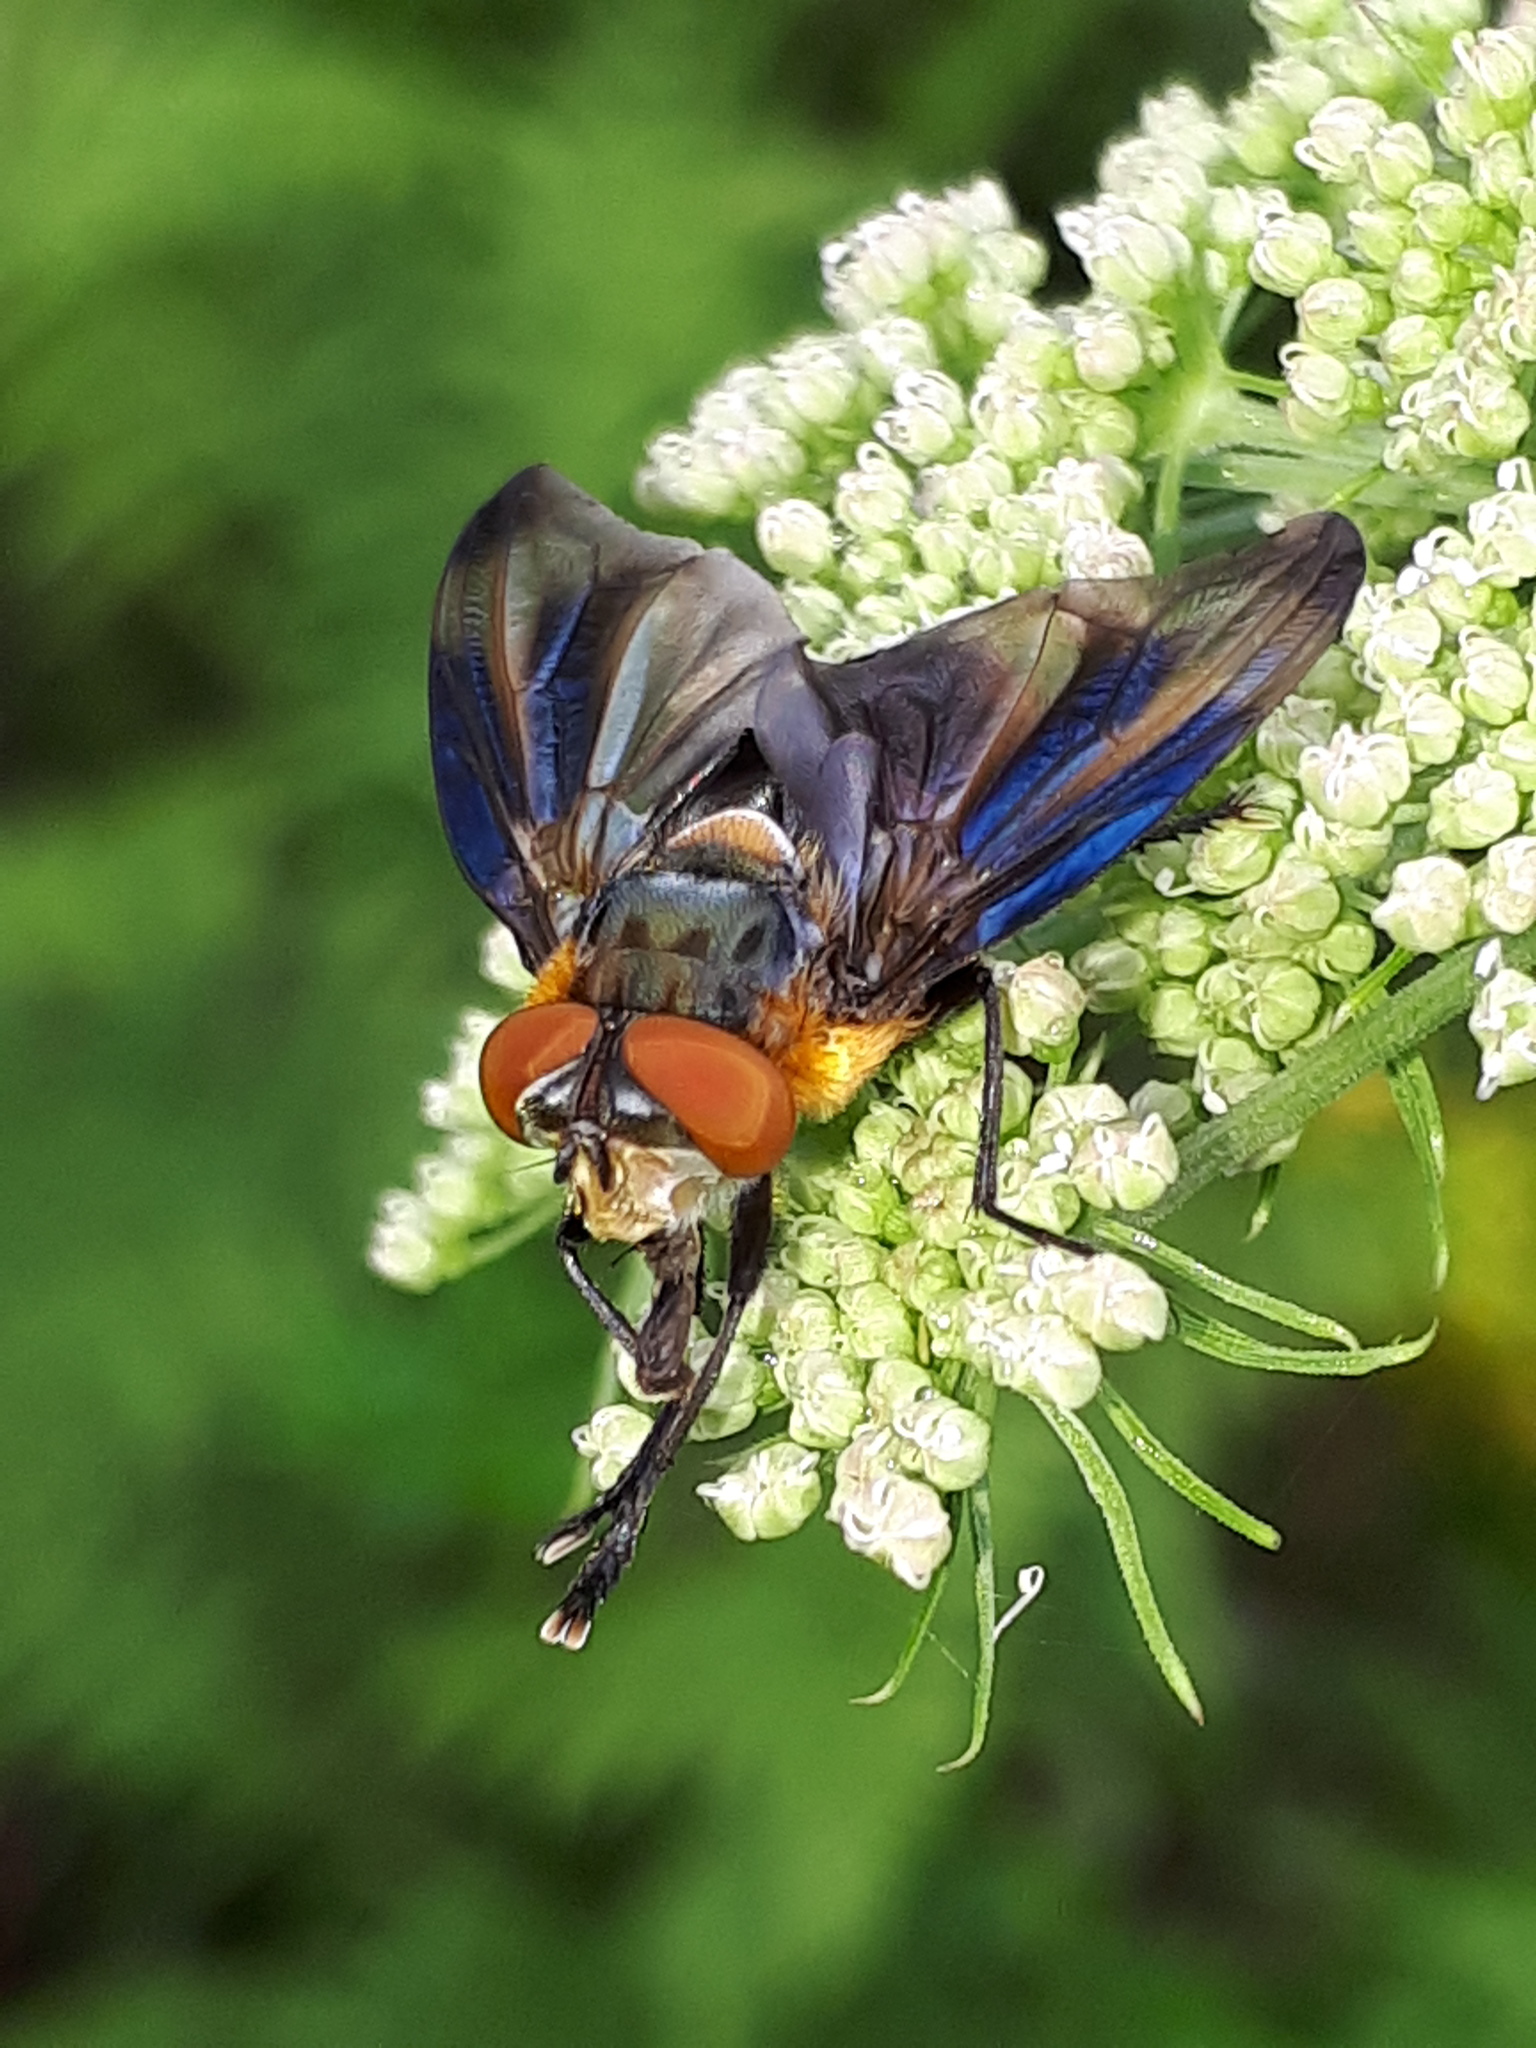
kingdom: Animalia
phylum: Arthropoda
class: Insecta
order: Diptera
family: Tachinidae
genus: Phasia
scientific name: Phasia hemiptera
